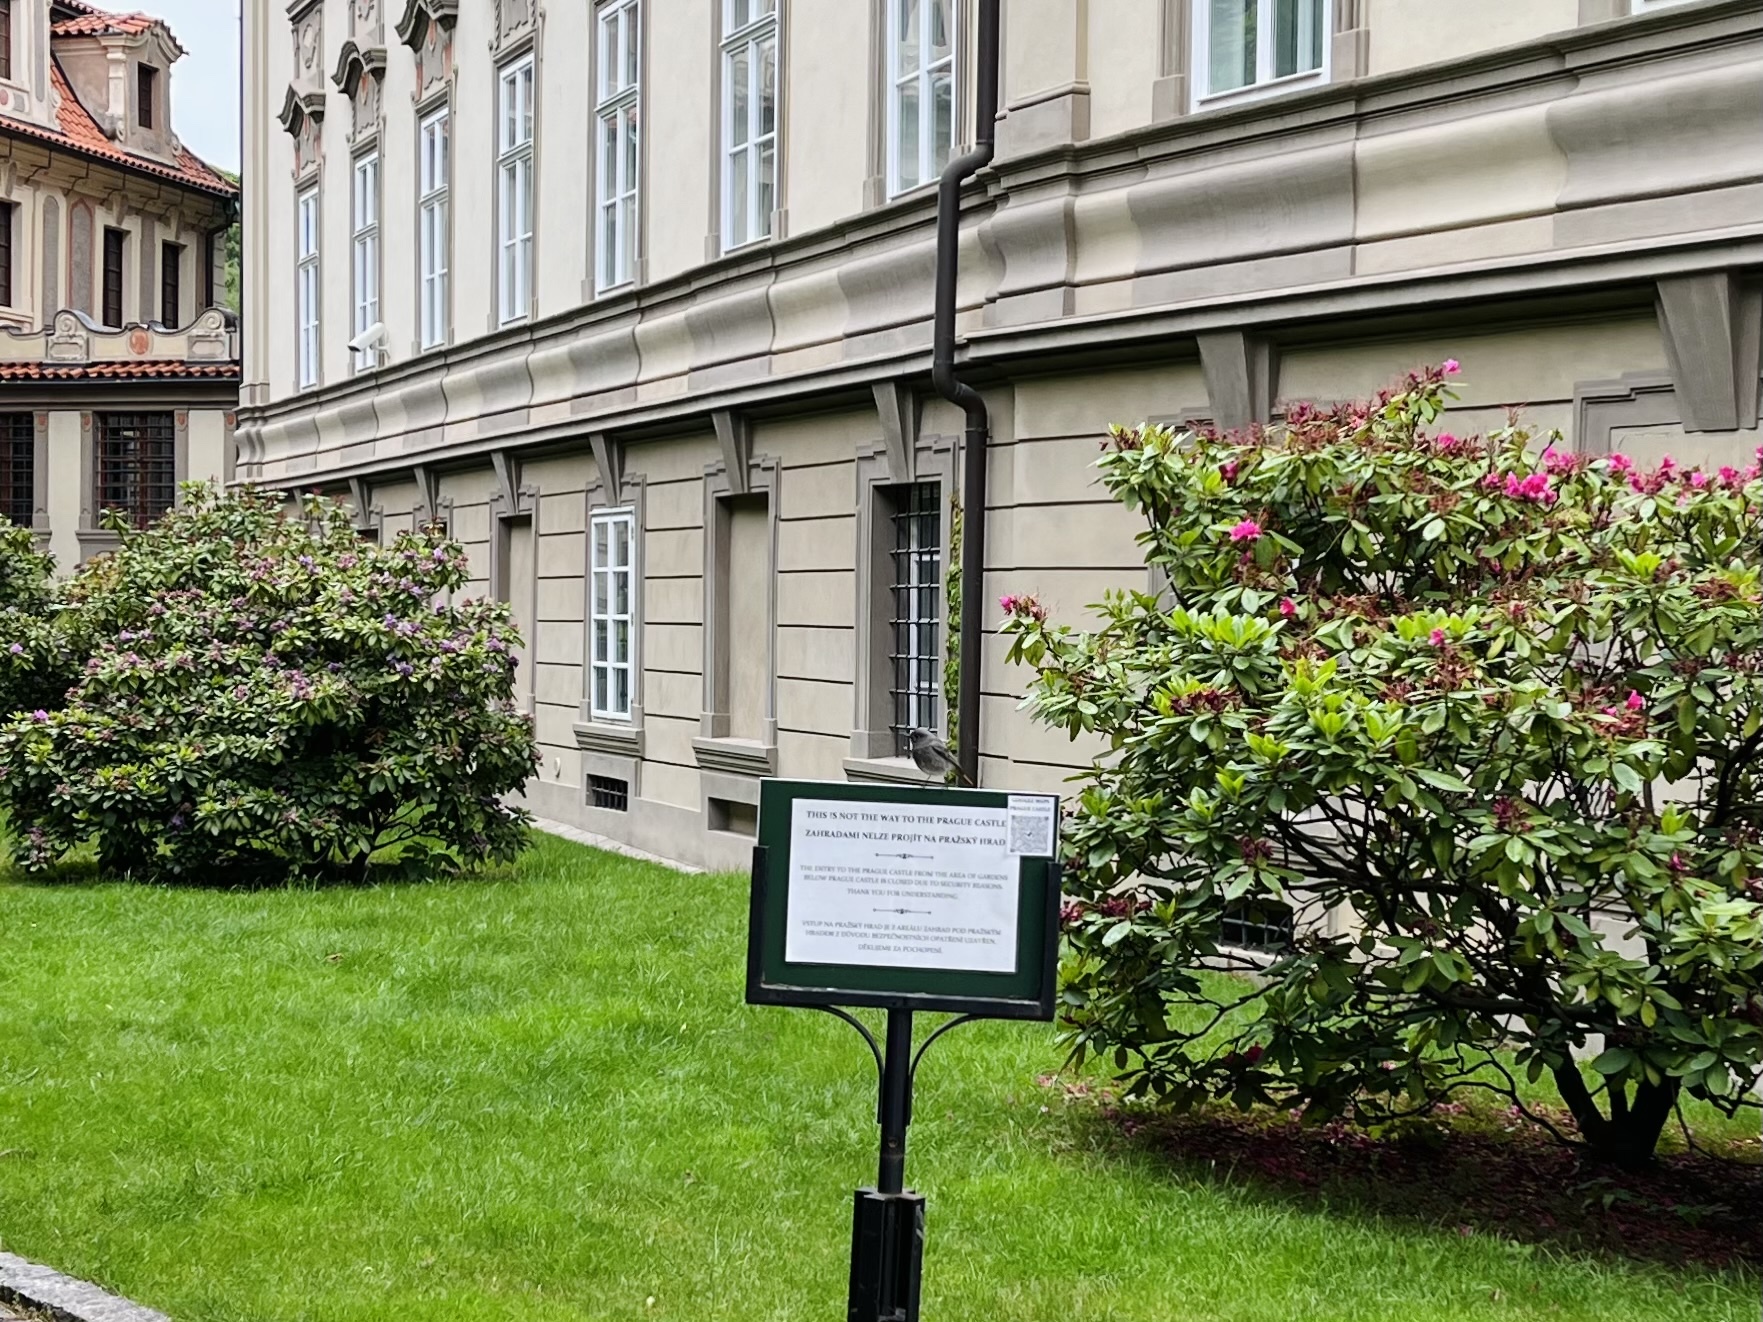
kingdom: Animalia
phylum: Chordata
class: Aves
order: Passeriformes
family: Muscicapidae
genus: Phoenicurus
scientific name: Phoenicurus ochruros
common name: Black redstart
